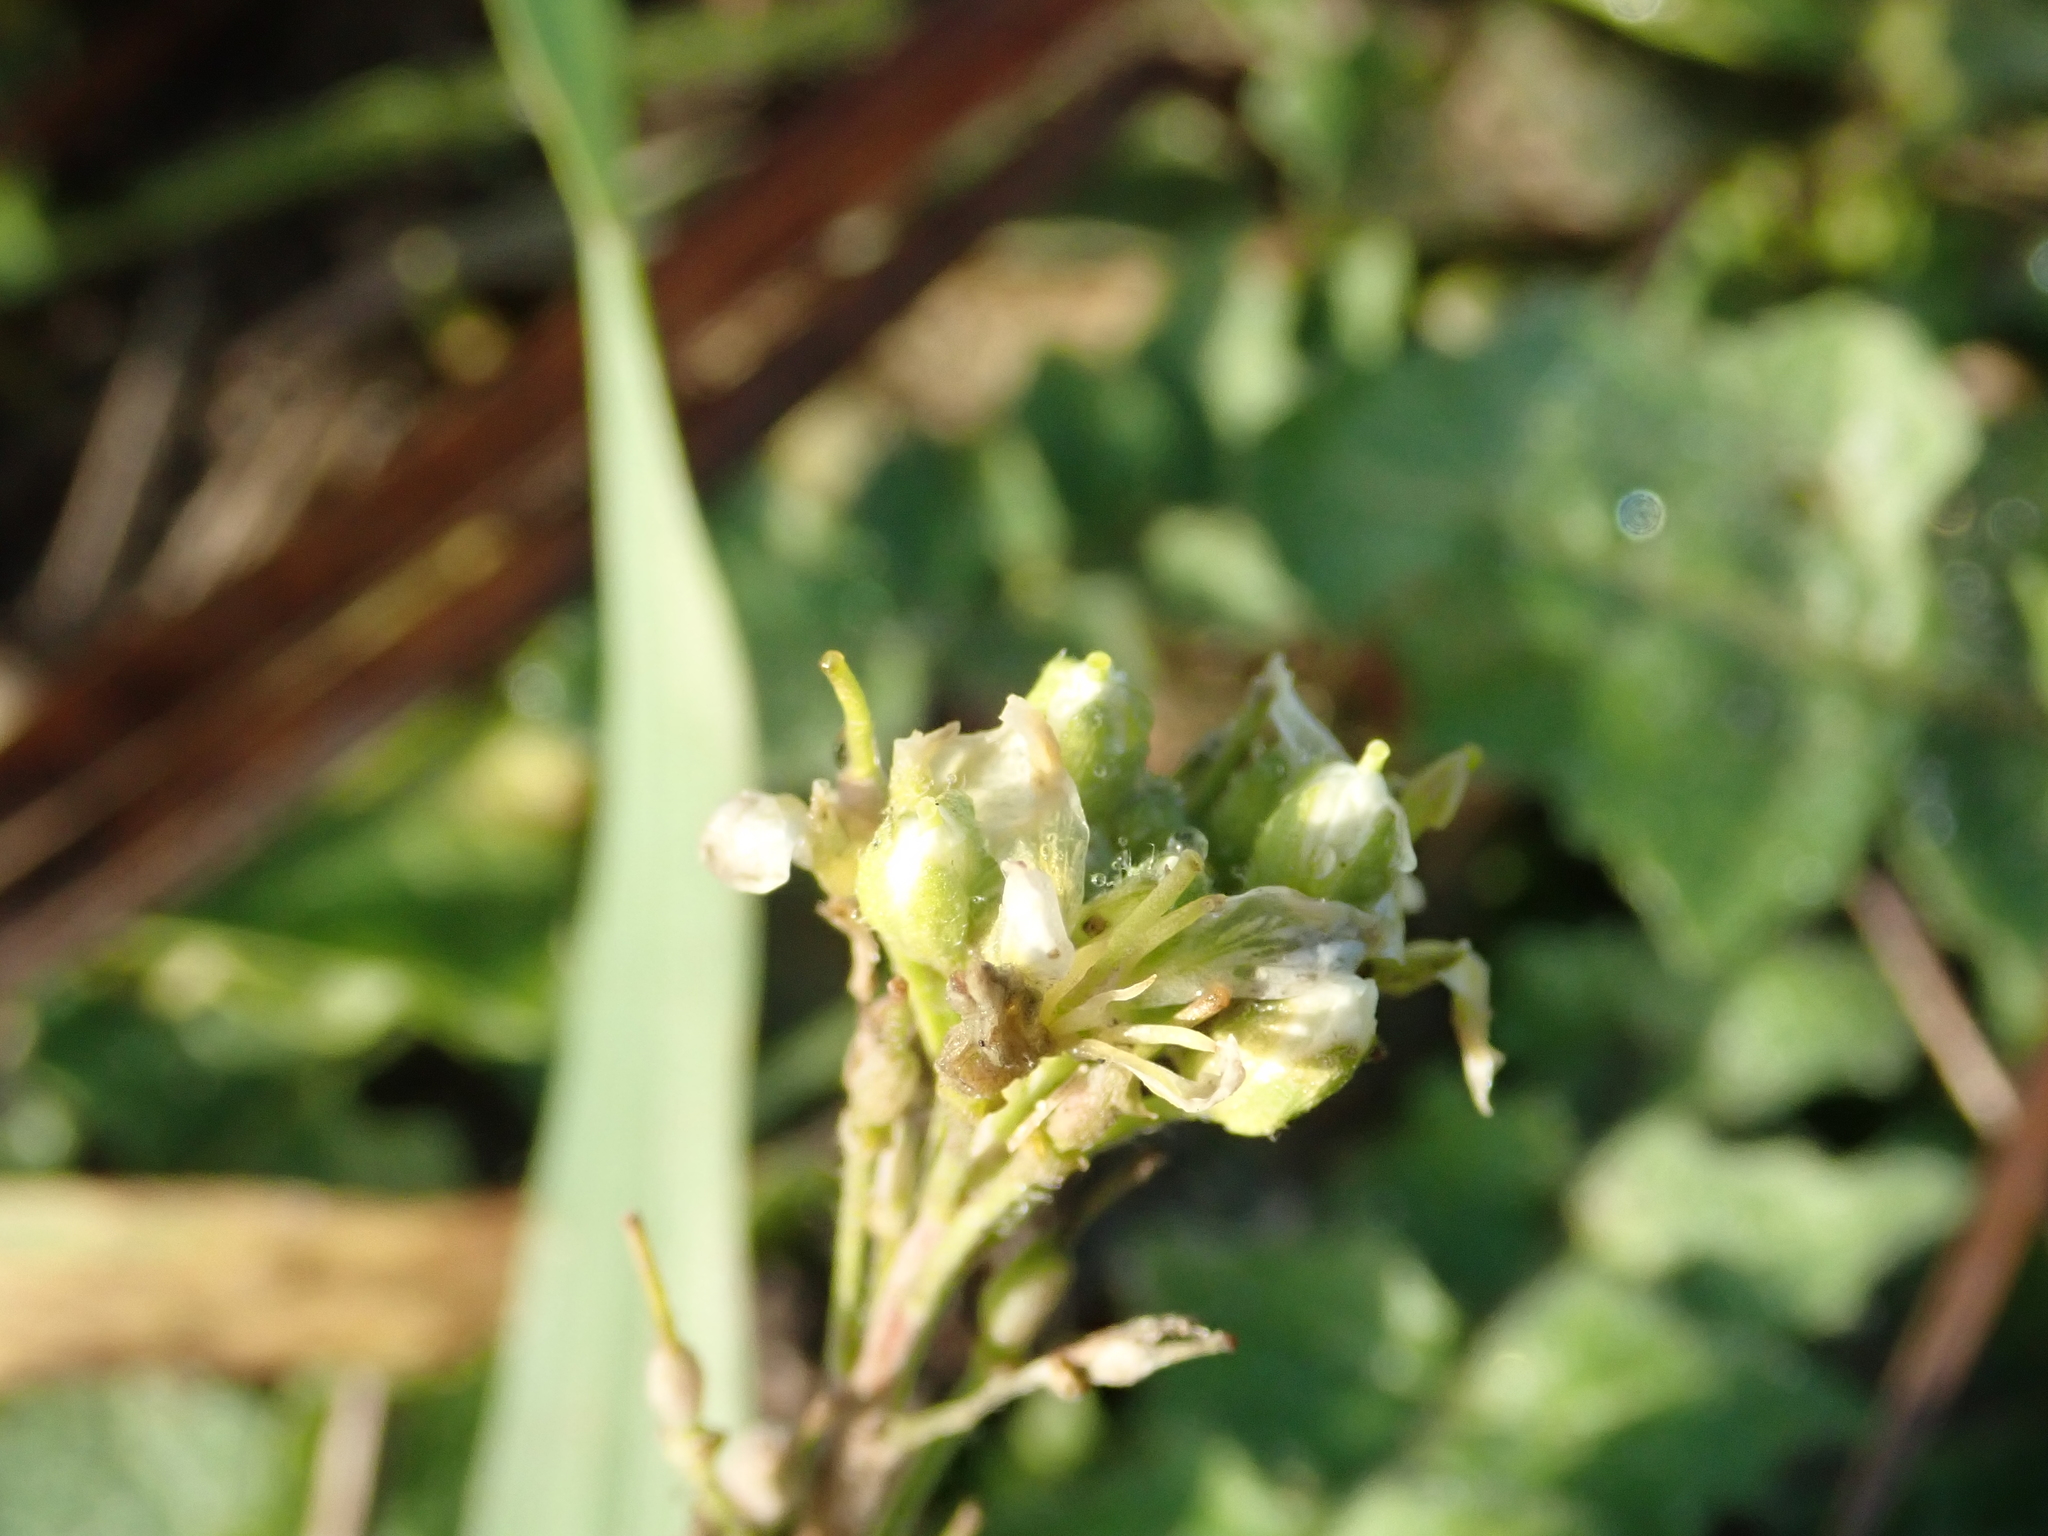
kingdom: Plantae
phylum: Tracheophyta
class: Magnoliopsida
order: Brassicales
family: Brassicaceae
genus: Berteroa
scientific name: Berteroa incana
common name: Hoary alison
